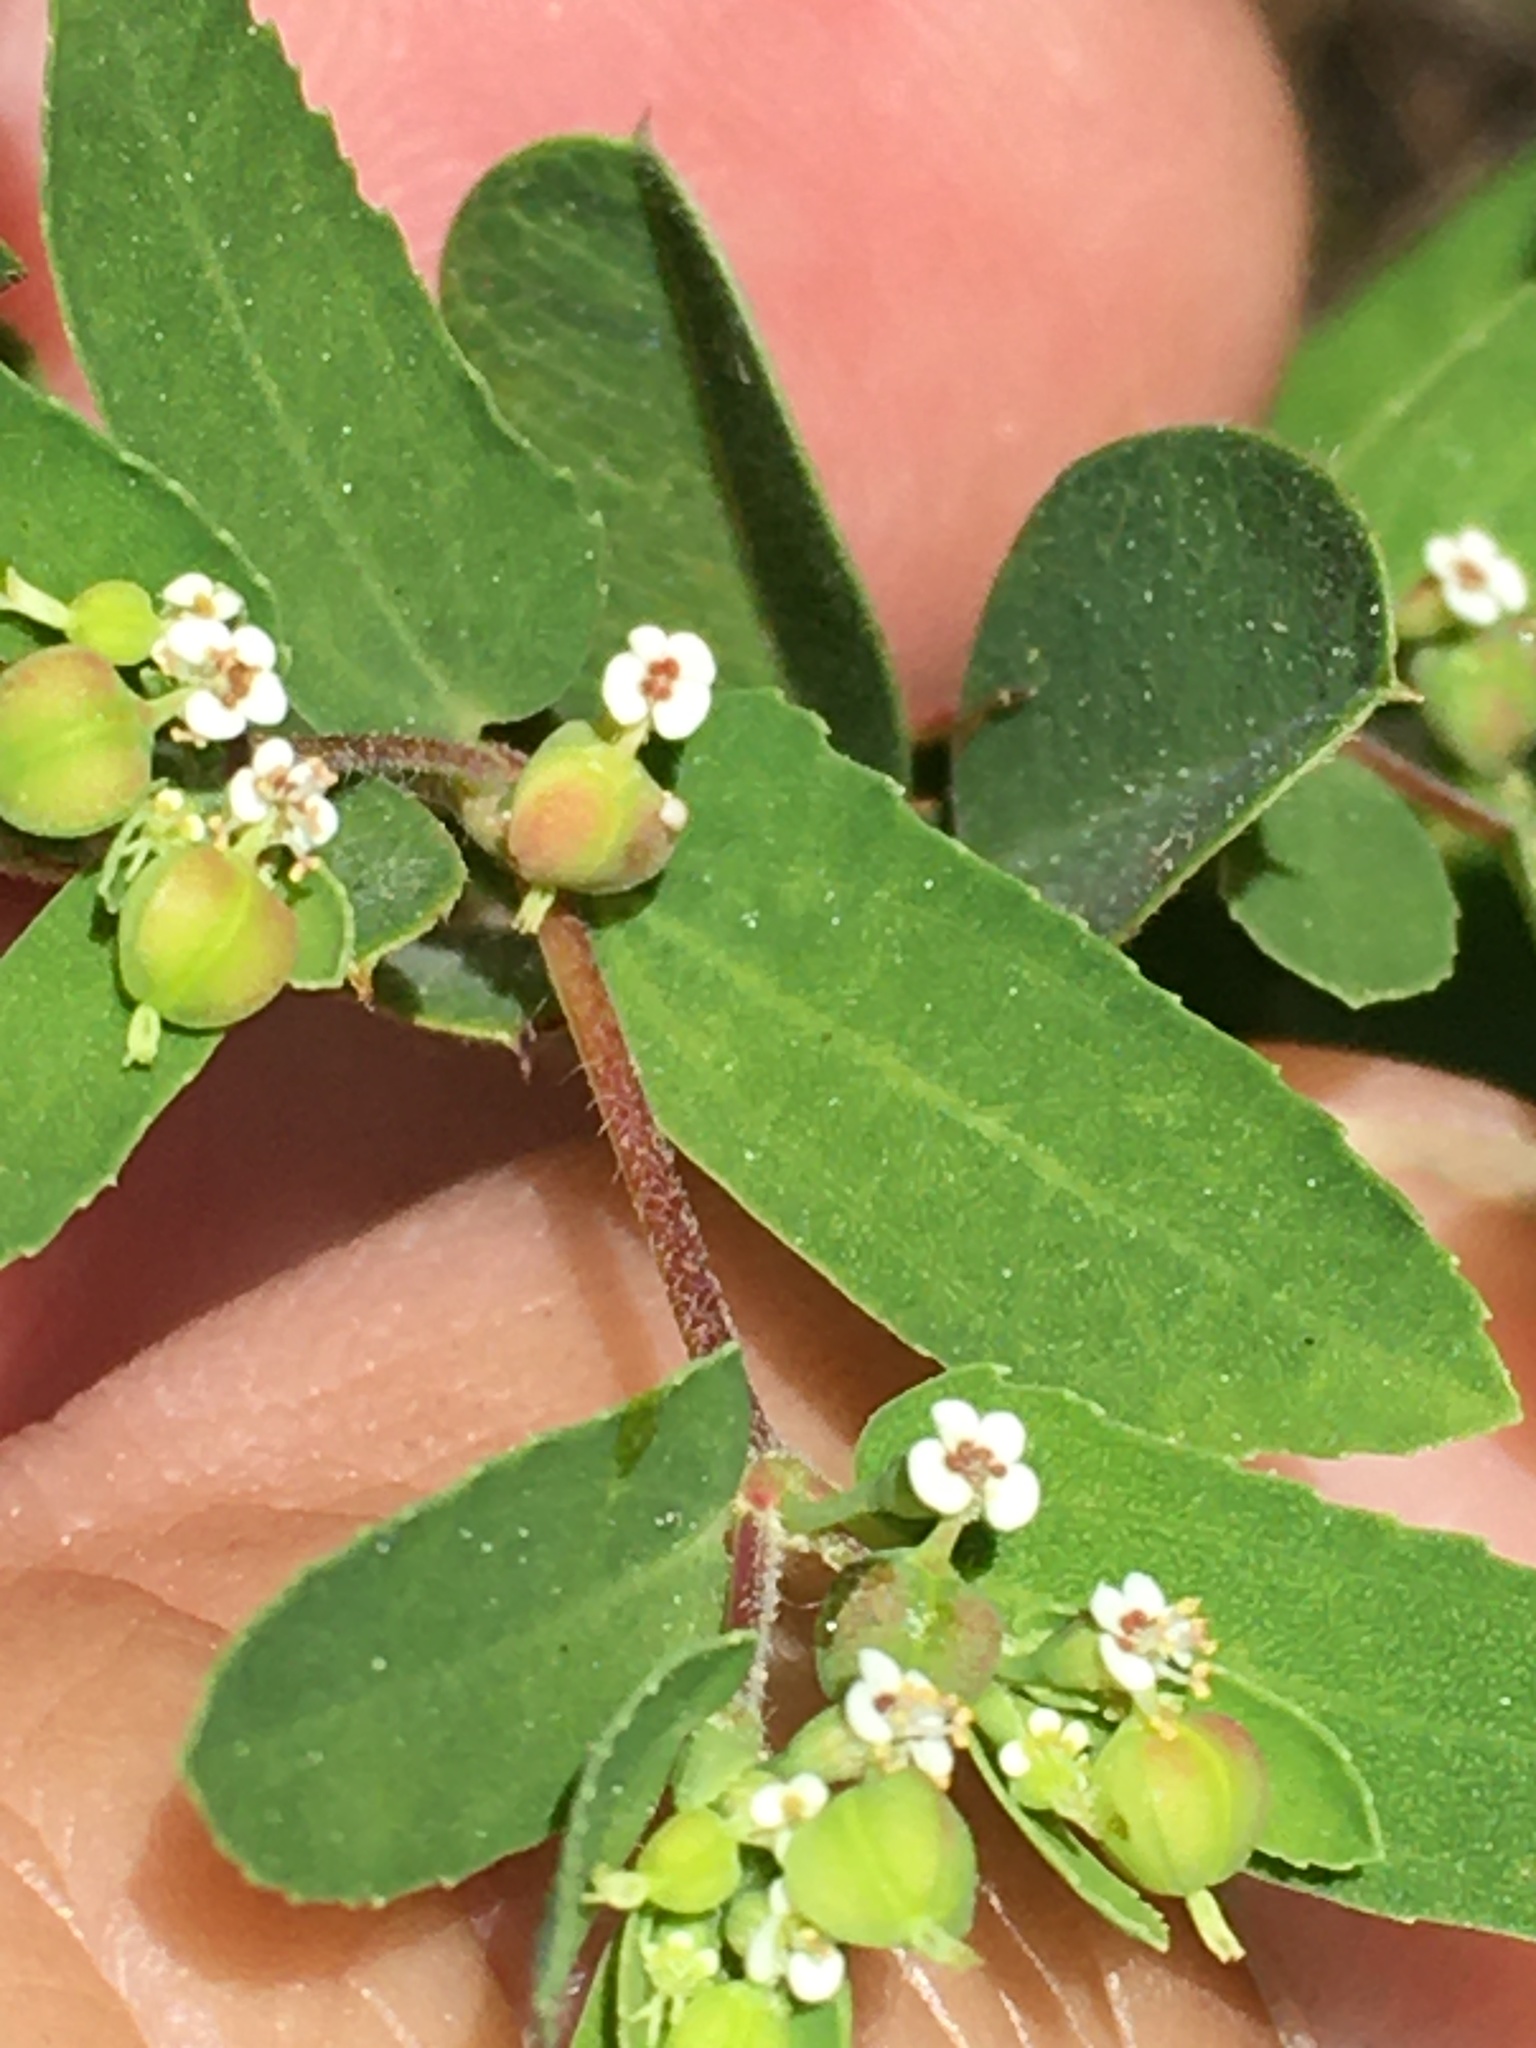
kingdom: Plantae
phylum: Tracheophyta
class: Magnoliopsida
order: Malpighiales
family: Euphorbiaceae
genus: Euphorbia
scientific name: Euphorbia nutans
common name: Eyebane
